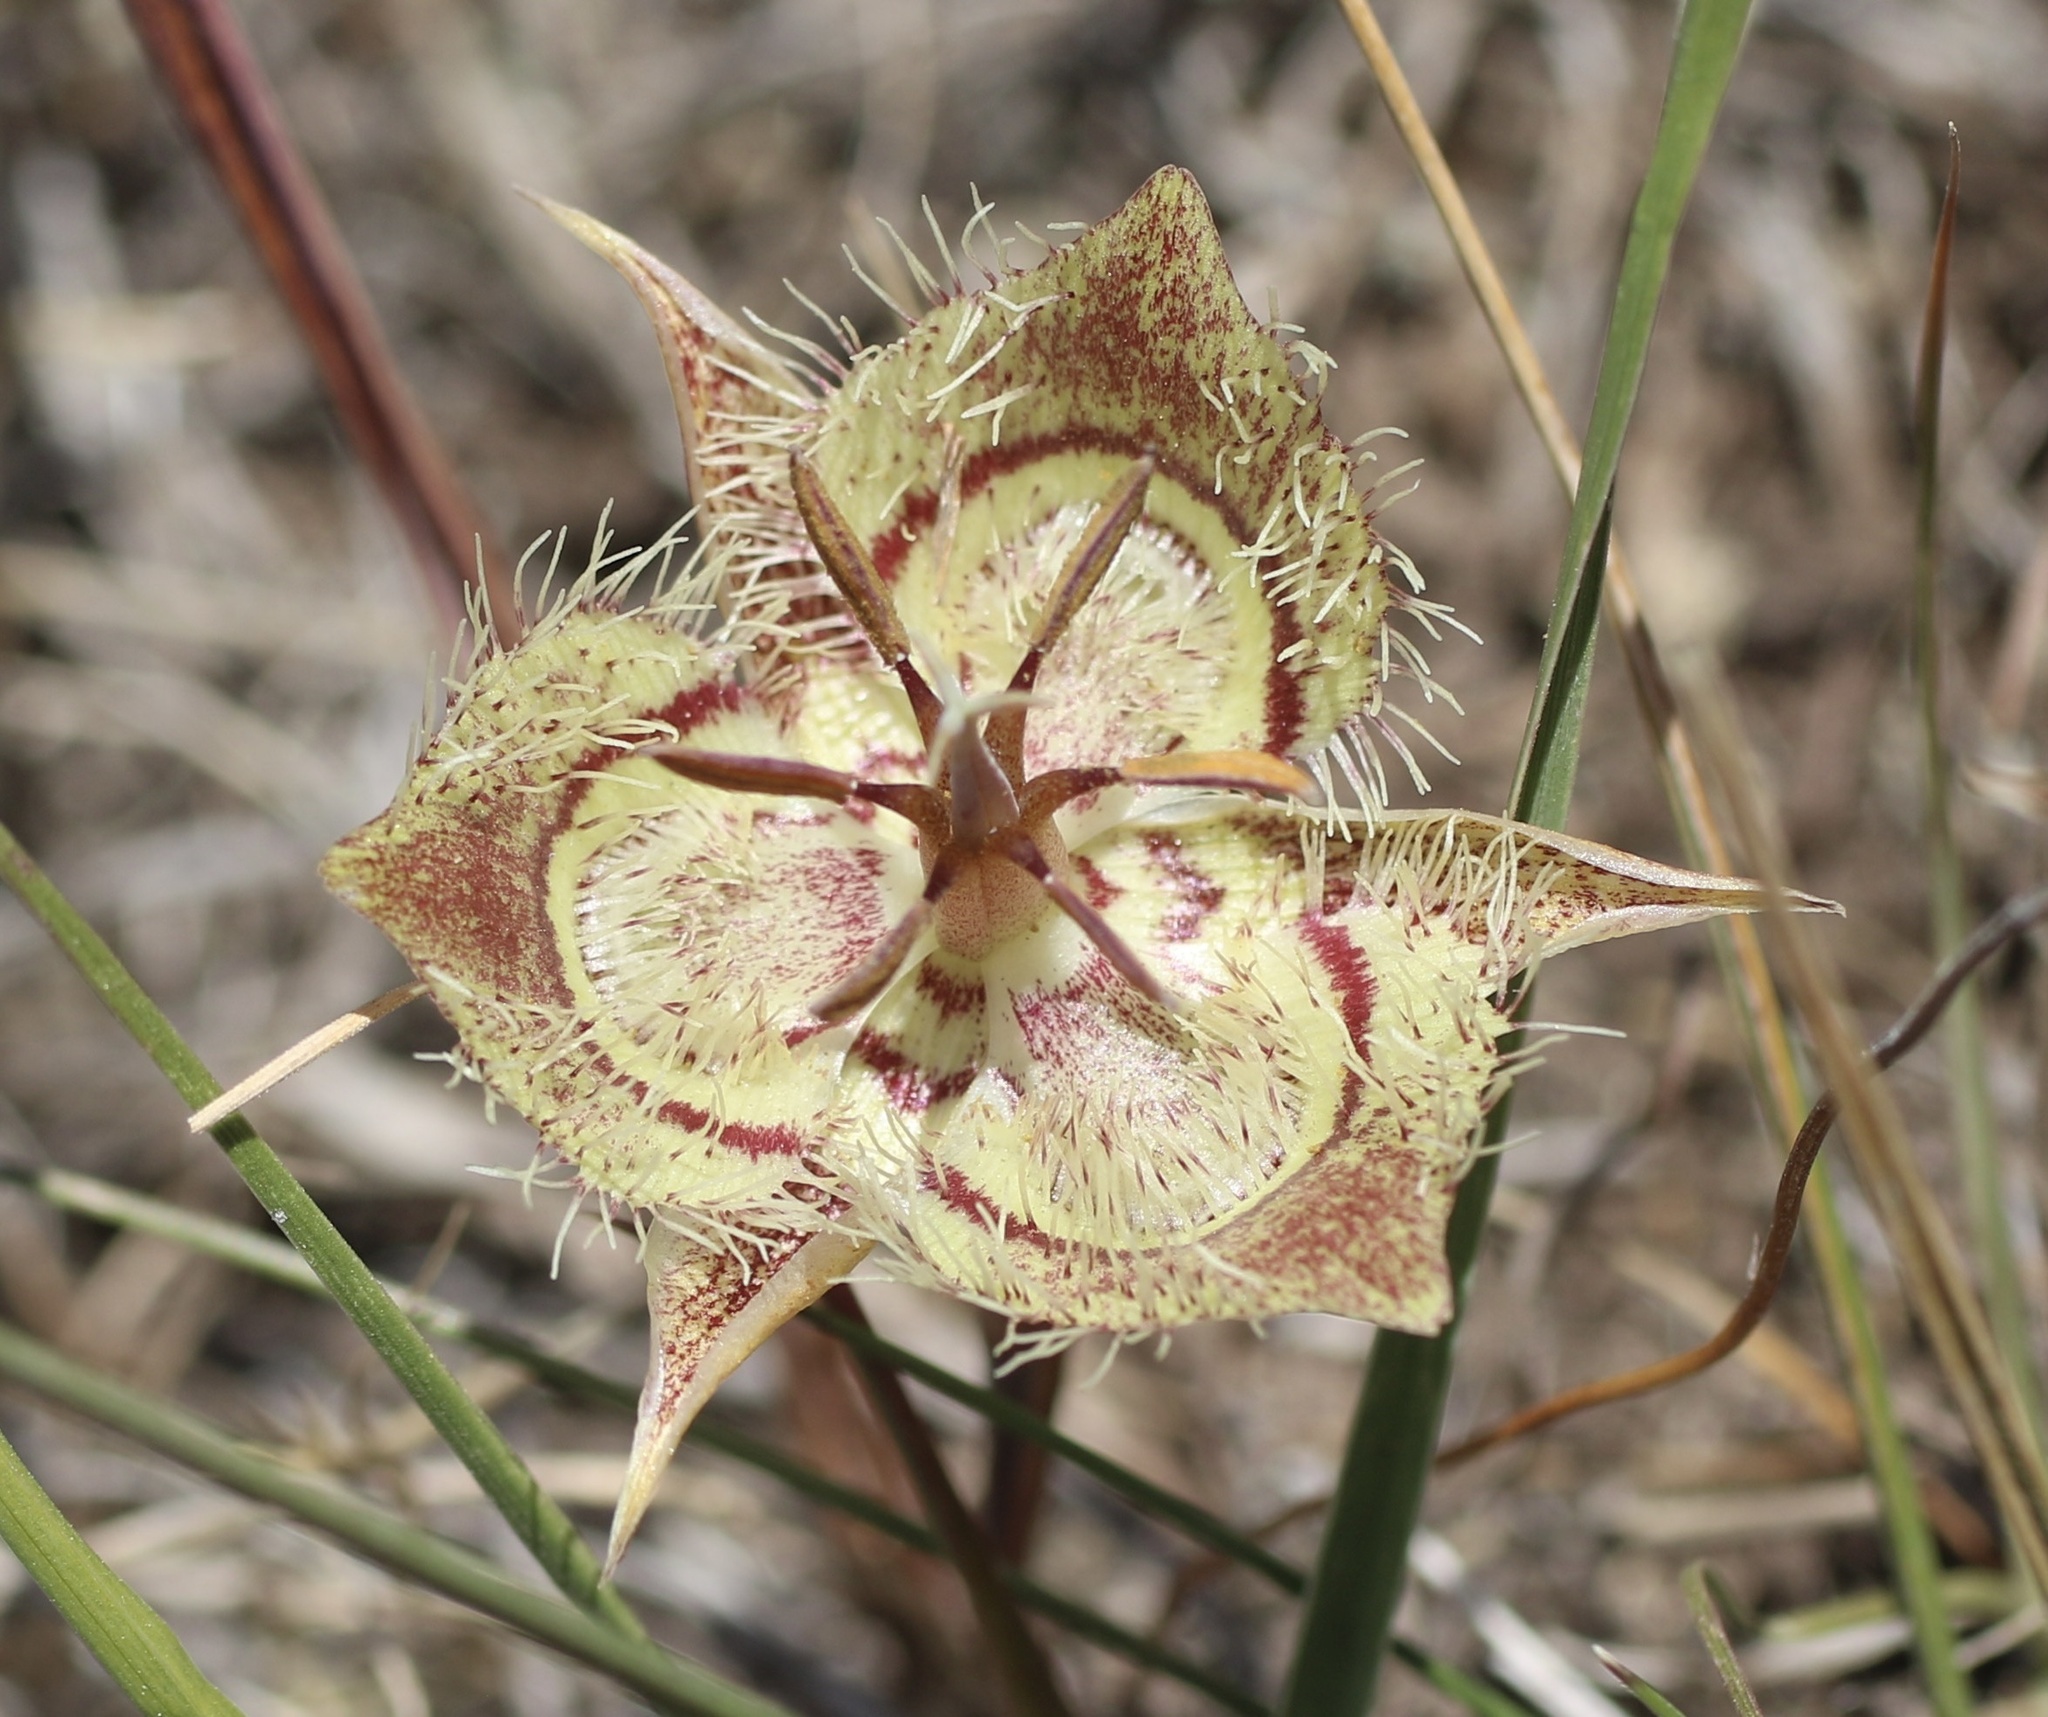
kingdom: Plantae
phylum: Tracheophyta
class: Liliopsida
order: Liliales
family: Liliaceae
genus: Calochortus
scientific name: Calochortus tiburonensis
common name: Tiburon mariposa-lily
